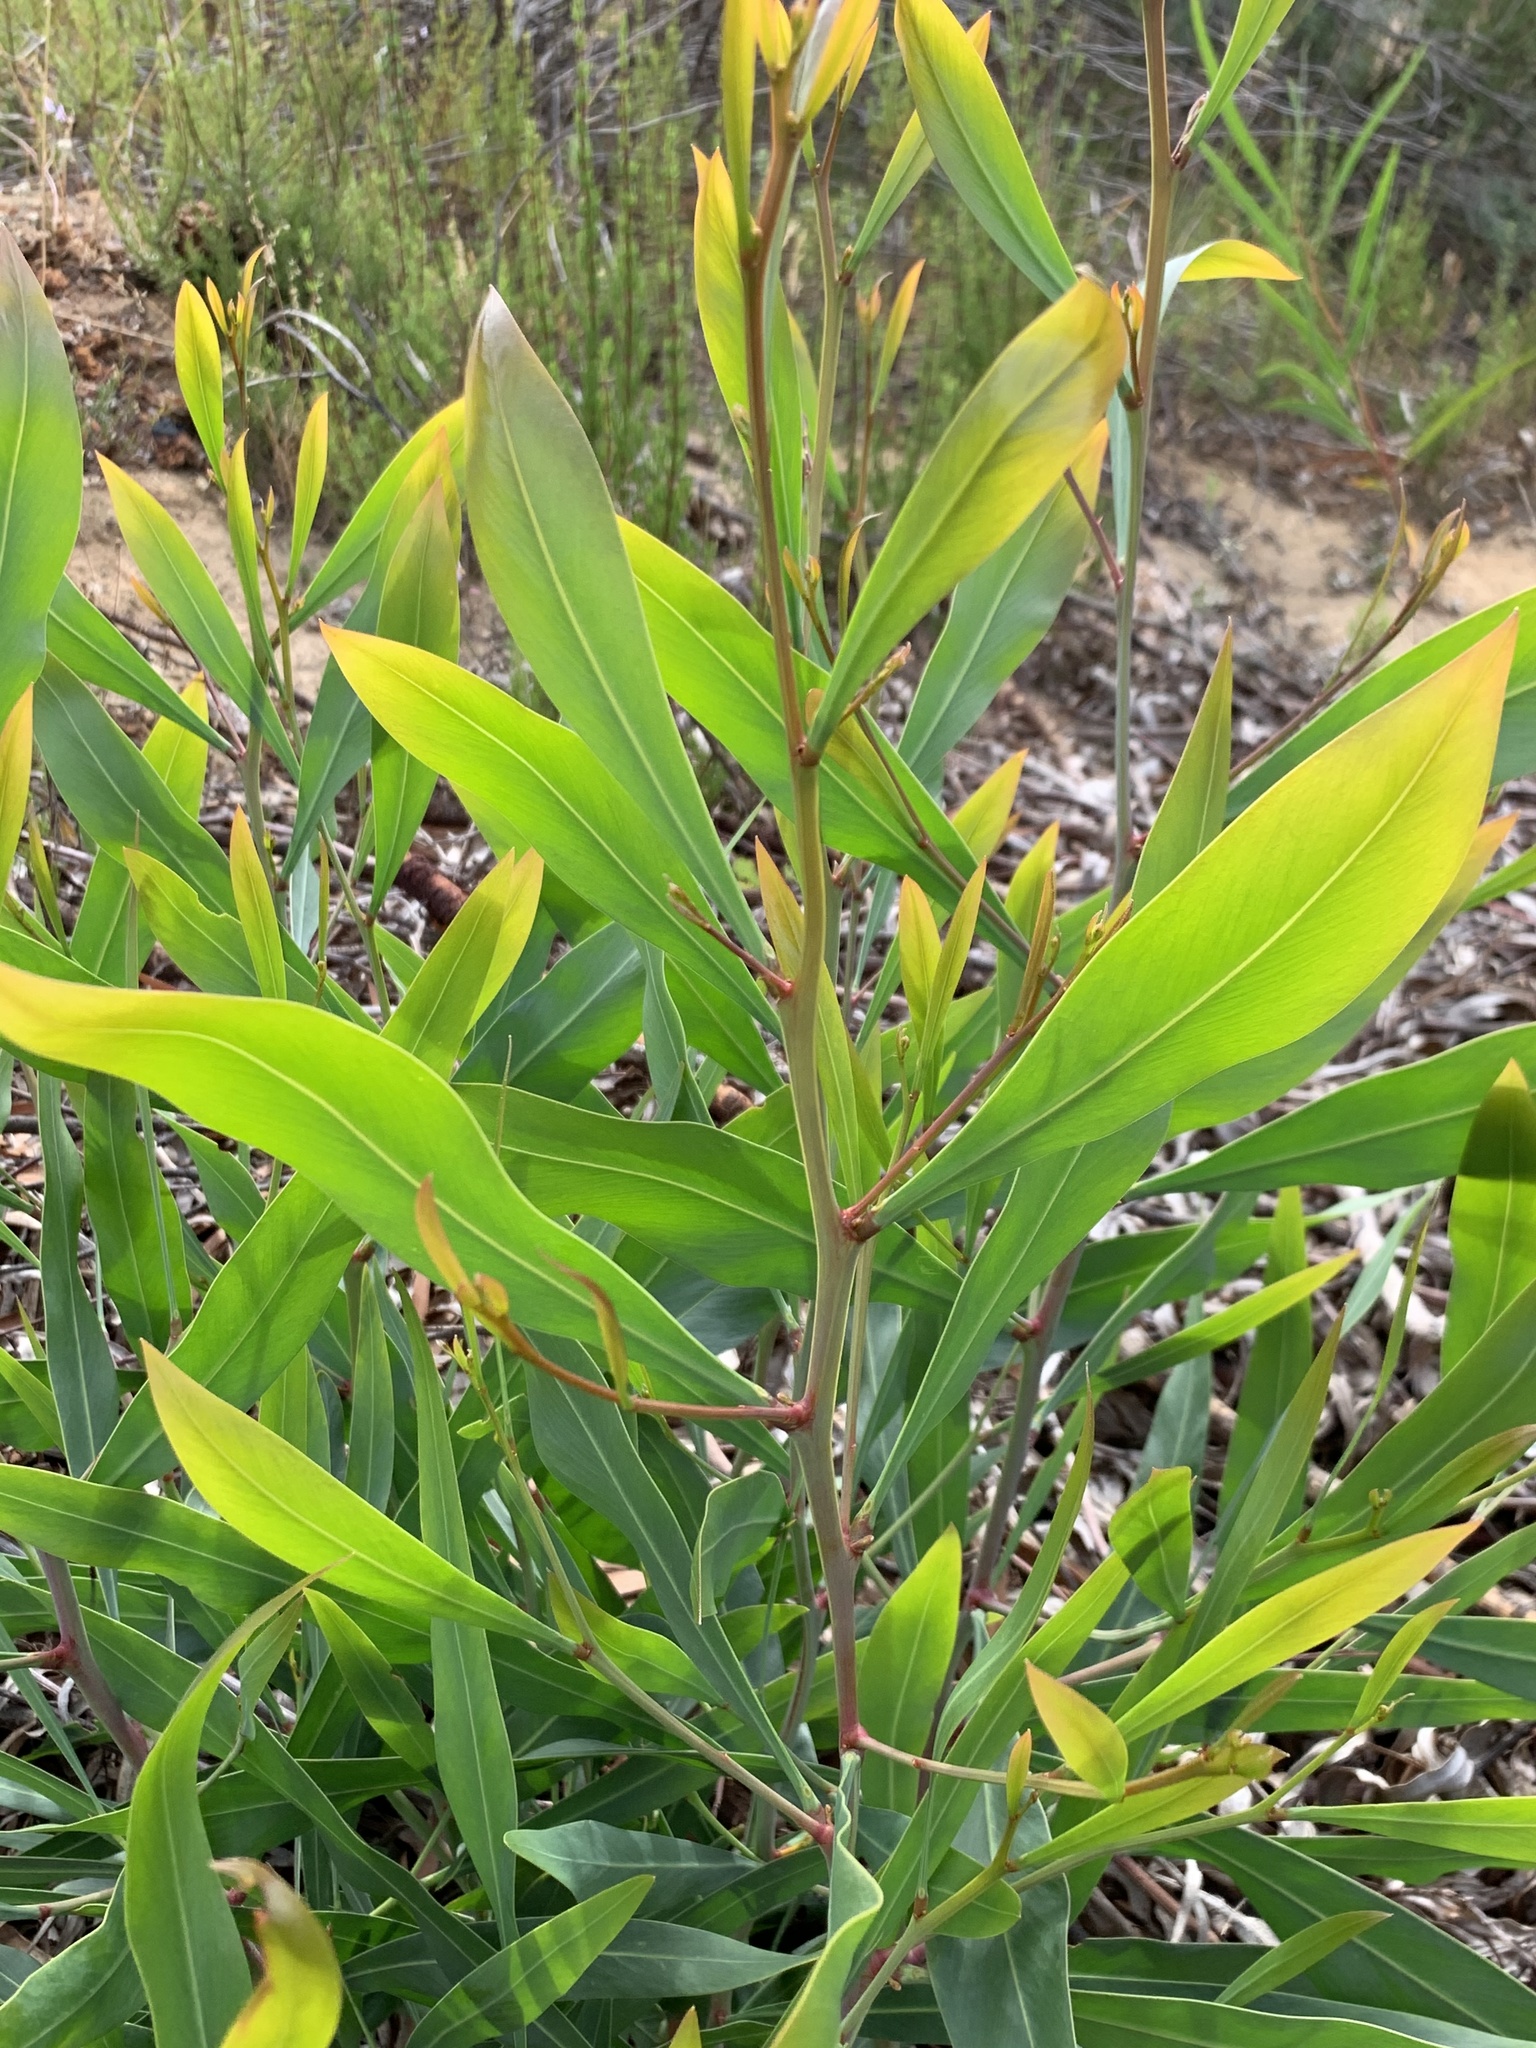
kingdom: Plantae
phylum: Tracheophyta
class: Magnoliopsida
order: Fabales
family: Fabaceae
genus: Acacia
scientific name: Acacia saligna
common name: Orange wattle
